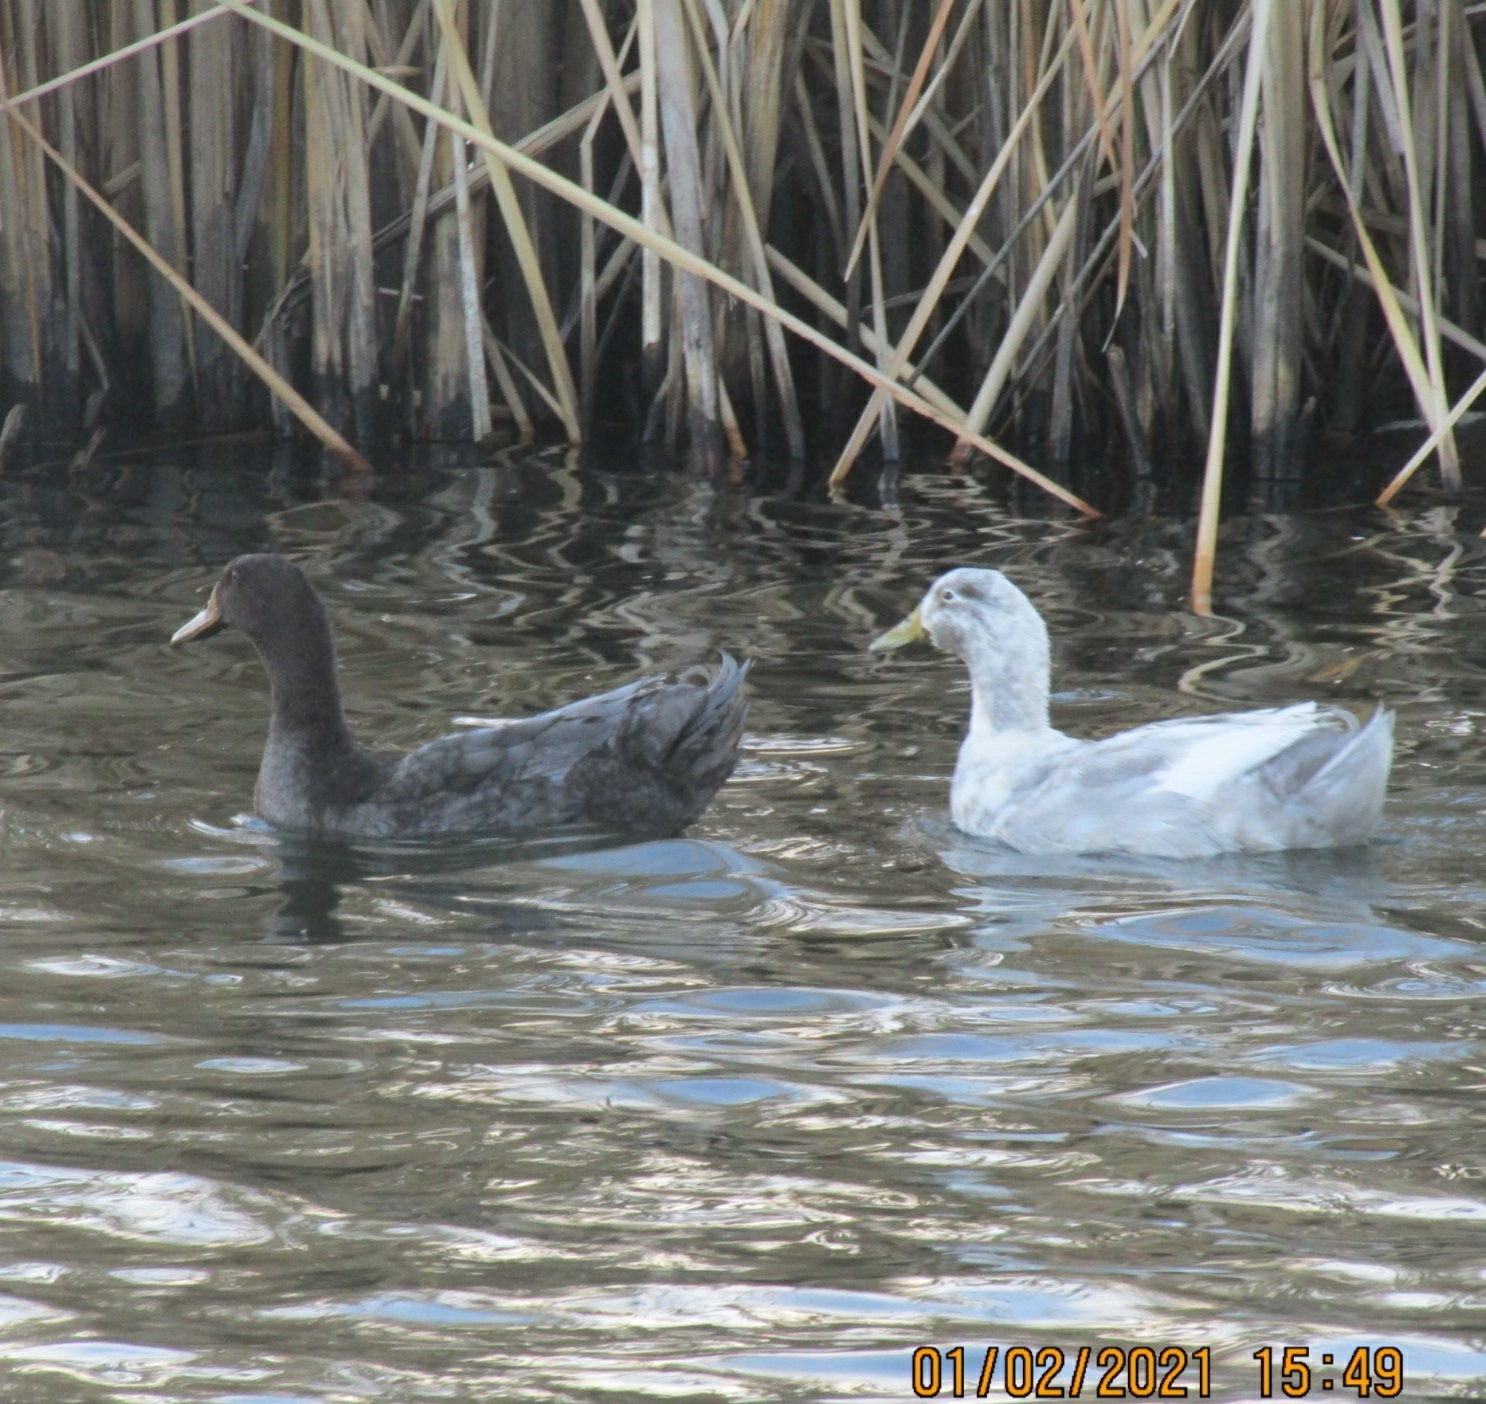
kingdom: Animalia
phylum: Chordata
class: Aves
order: Anseriformes
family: Anatidae
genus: Anas
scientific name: Anas platyrhynchos
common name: Mallard
